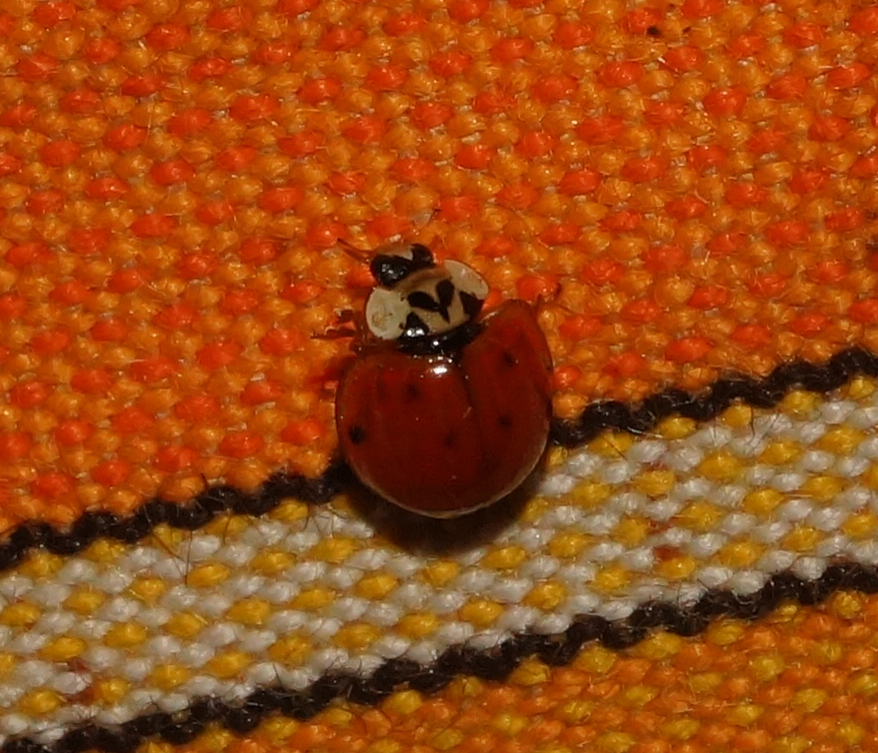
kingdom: Animalia
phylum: Arthropoda
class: Insecta
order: Coleoptera
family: Coccinellidae
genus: Harmonia
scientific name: Harmonia axyridis
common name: Harlequin ladybird
